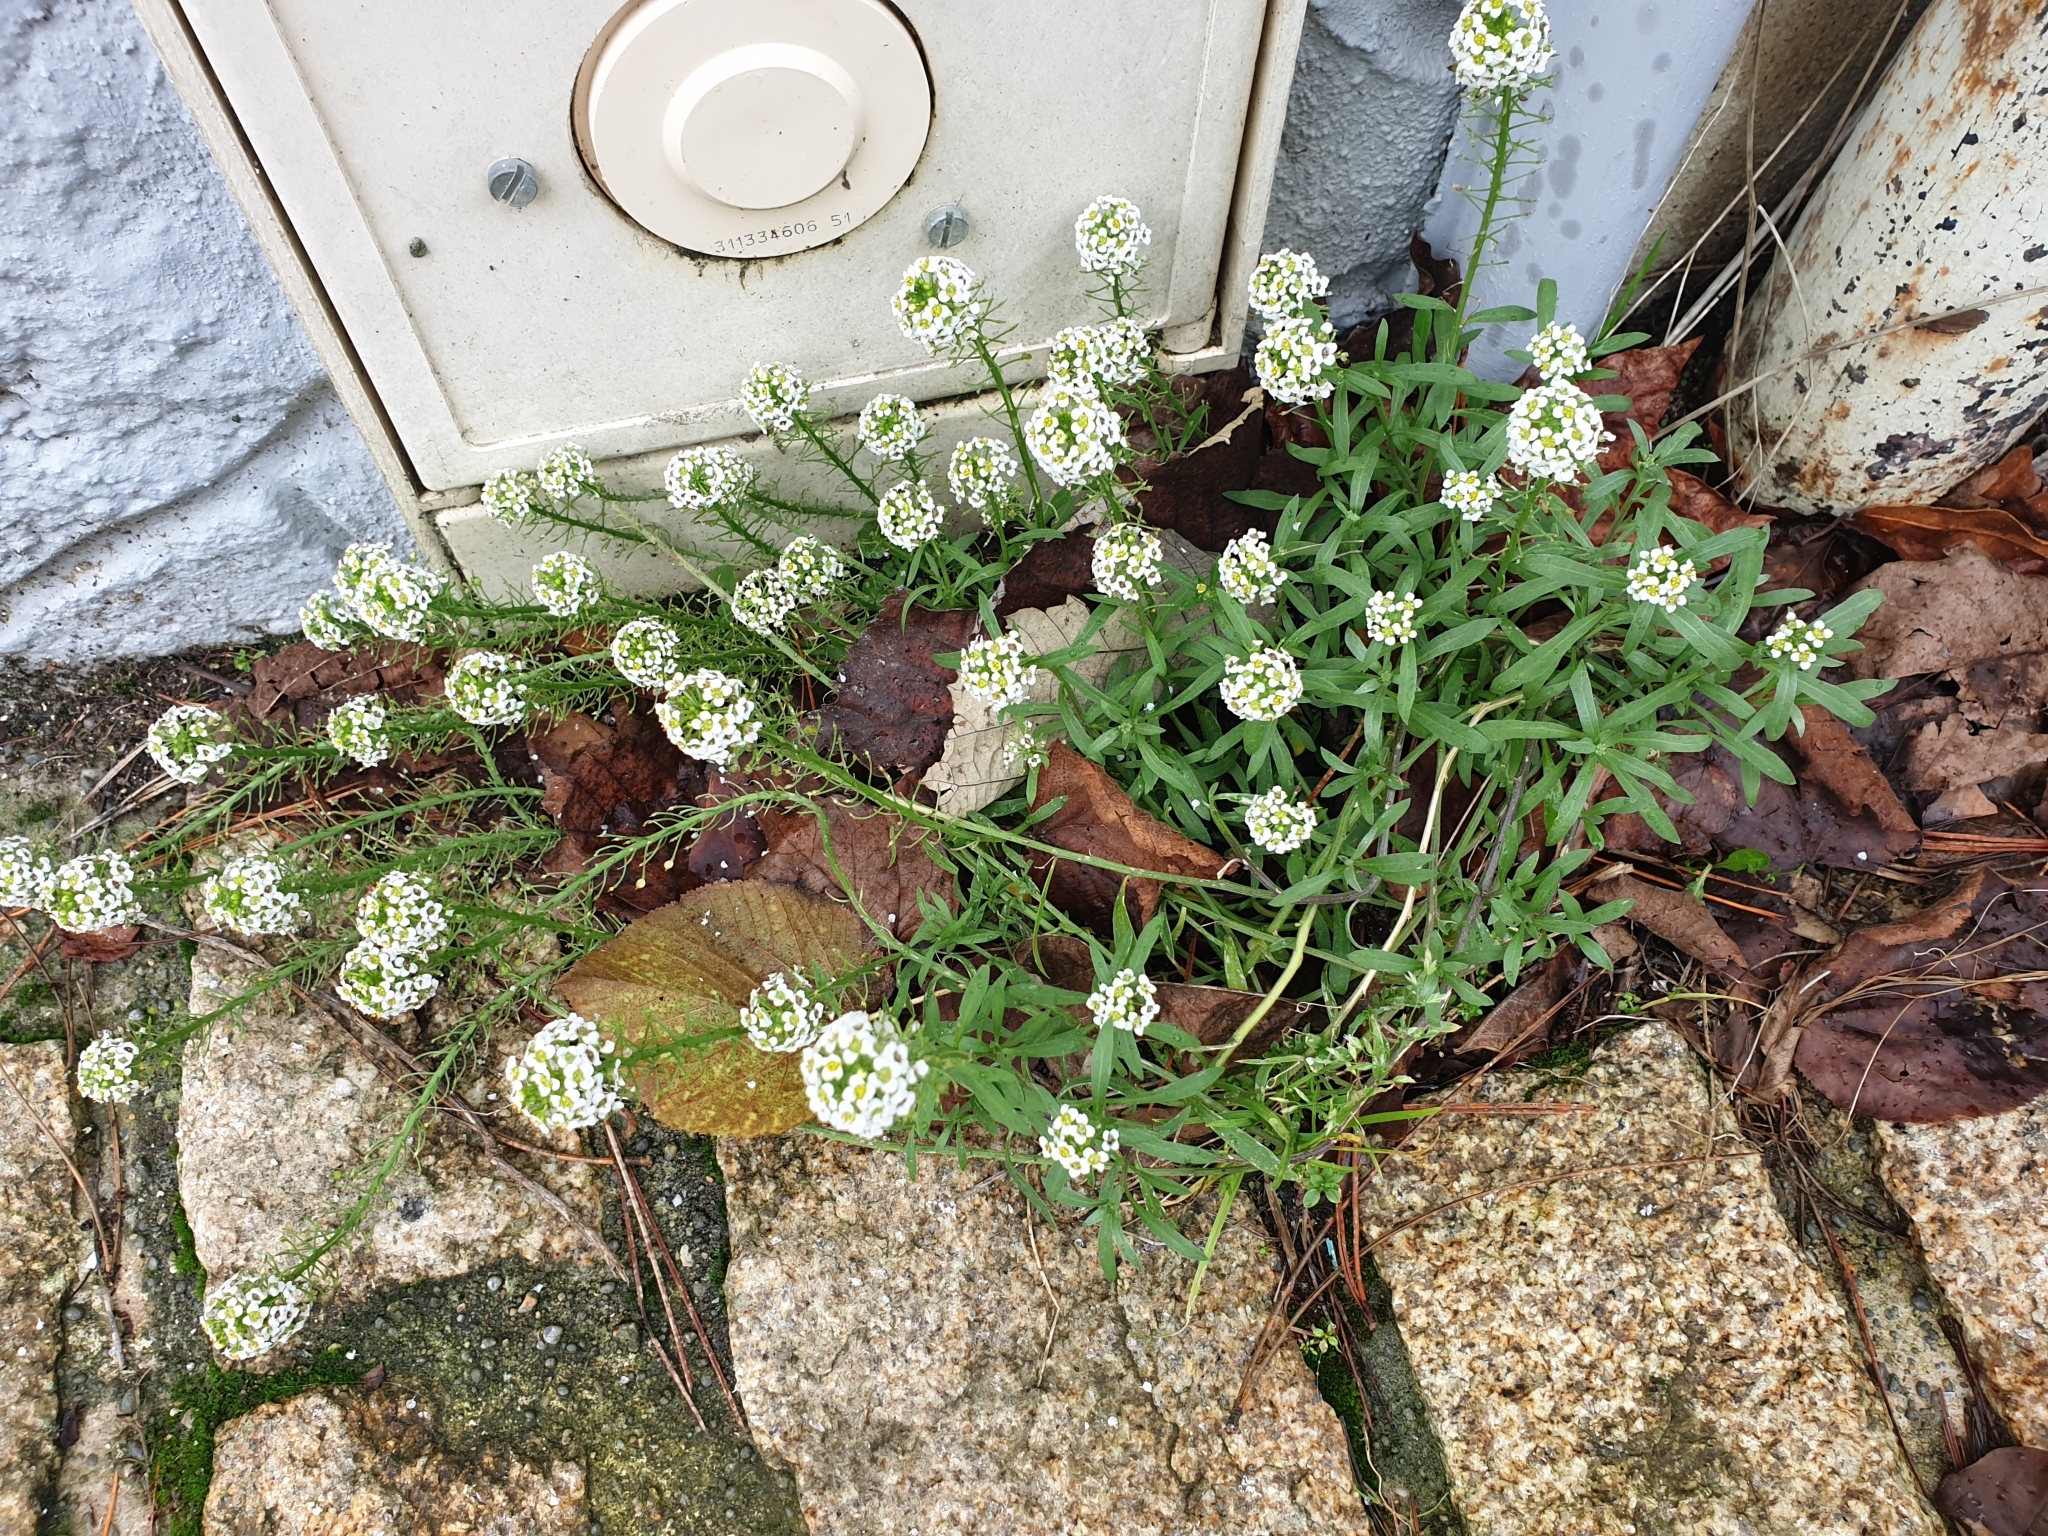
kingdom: Plantae
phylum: Tracheophyta
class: Magnoliopsida
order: Brassicales
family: Brassicaceae
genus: Lobularia
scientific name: Lobularia maritima
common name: Sweet alison
